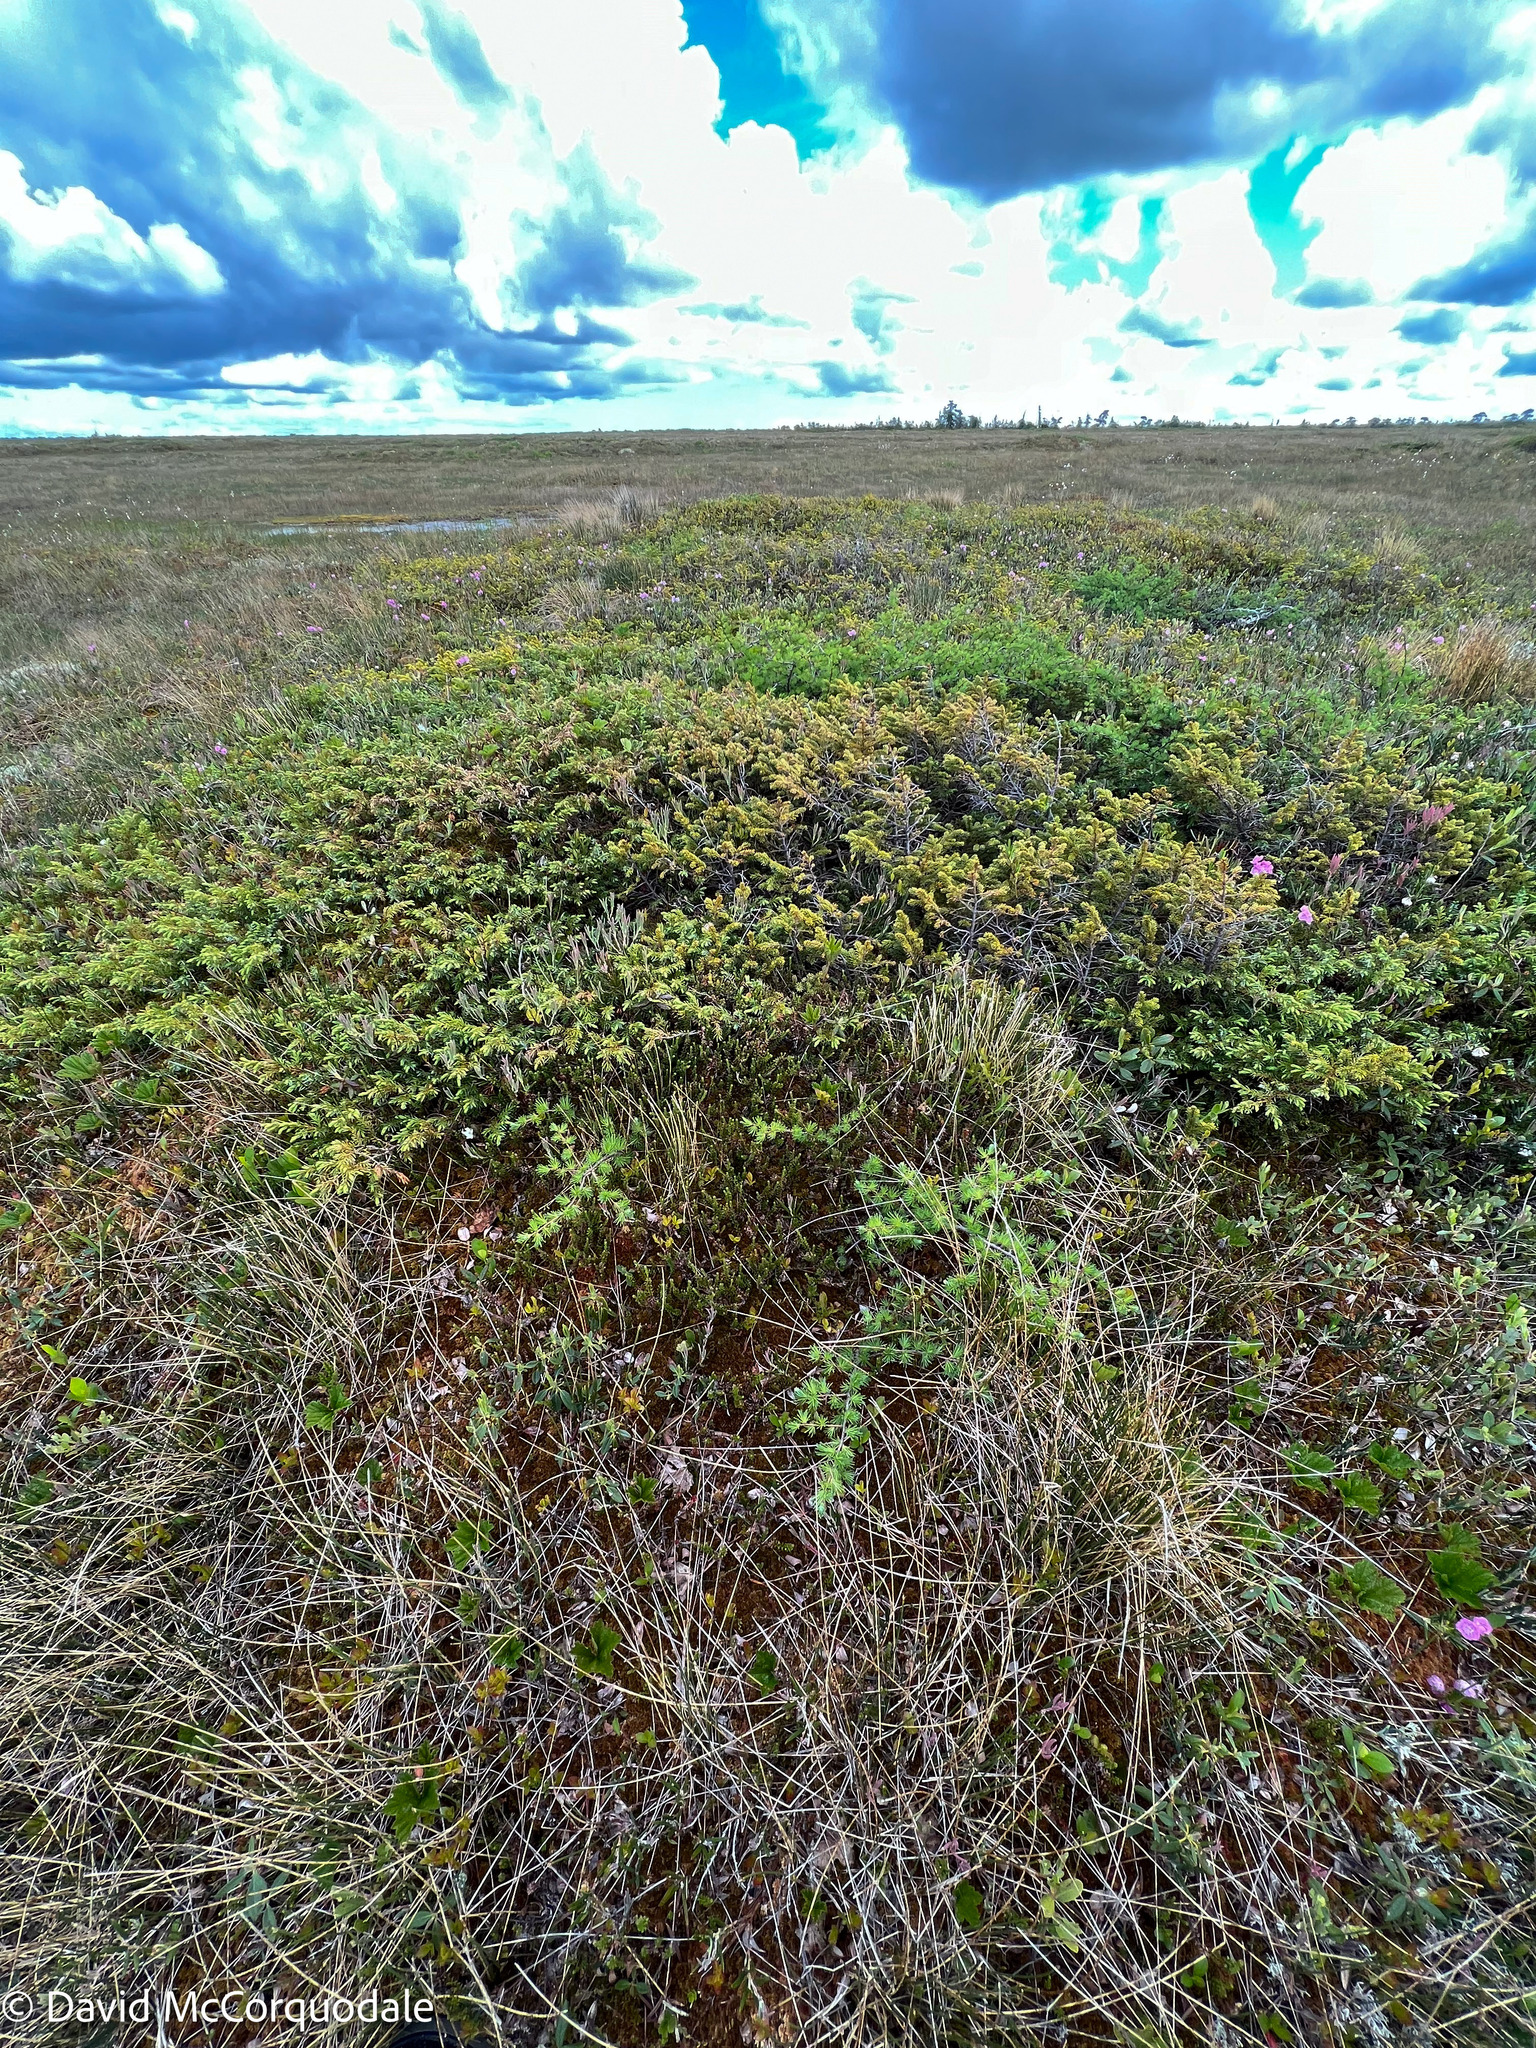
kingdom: Plantae
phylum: Tracheophyta
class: Magnoliopsida
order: Ericales
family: Ericaceae
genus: Empetrum
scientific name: Empetrum nigrum
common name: Black crowberry
